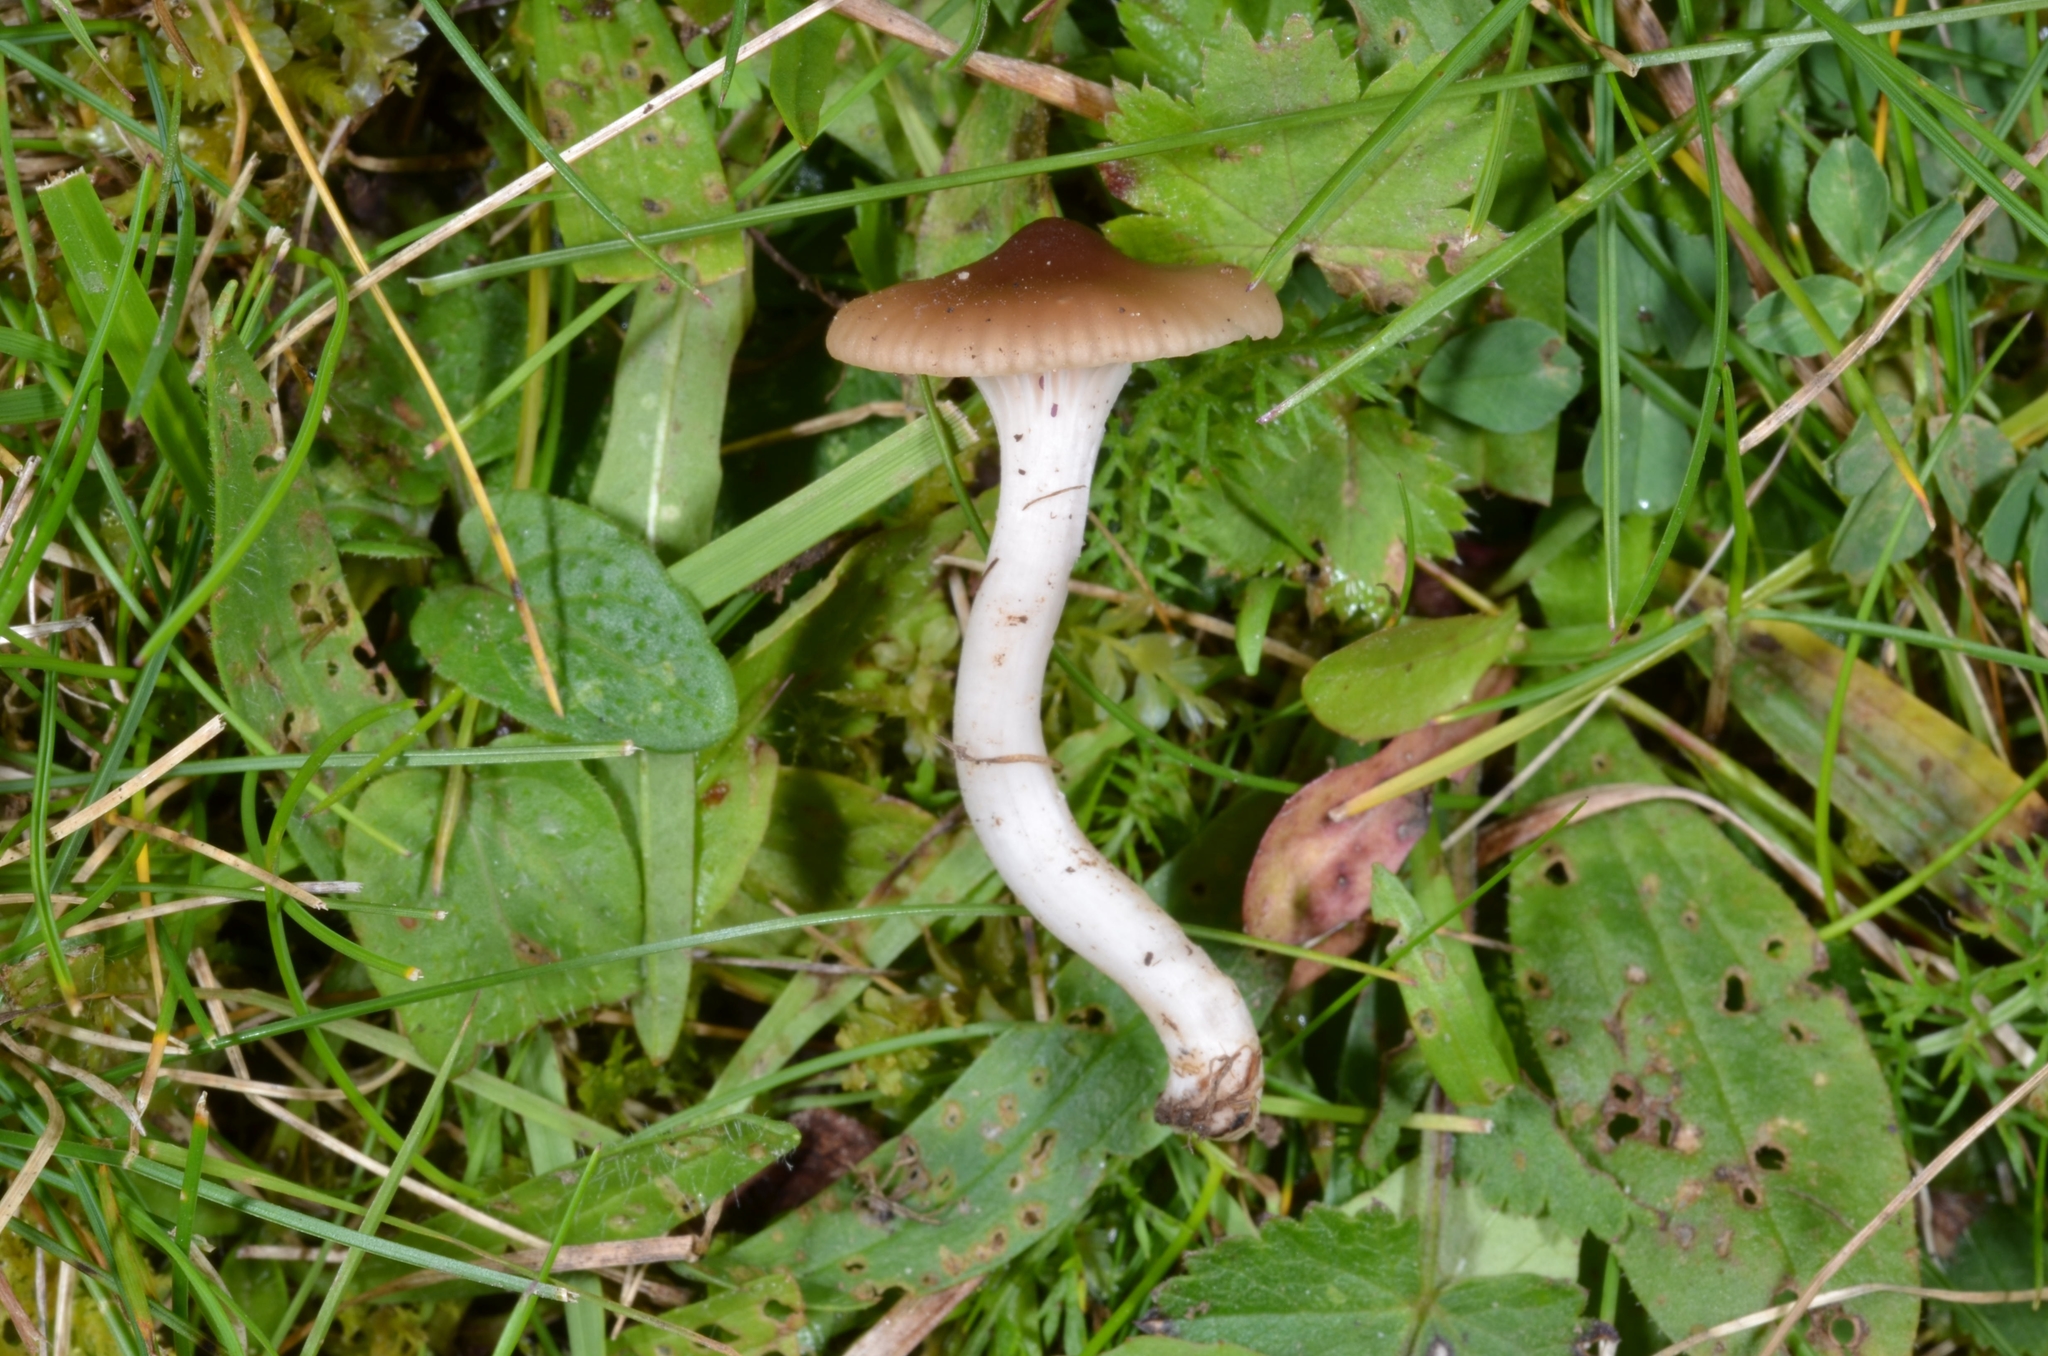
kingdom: Fungi
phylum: Basidiomycota
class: Agaricomycetes
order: Agaricales
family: Hygrophoraceae
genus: Cuphophyllus
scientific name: Cuphophyllus virgineus
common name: Snowy waxcap
